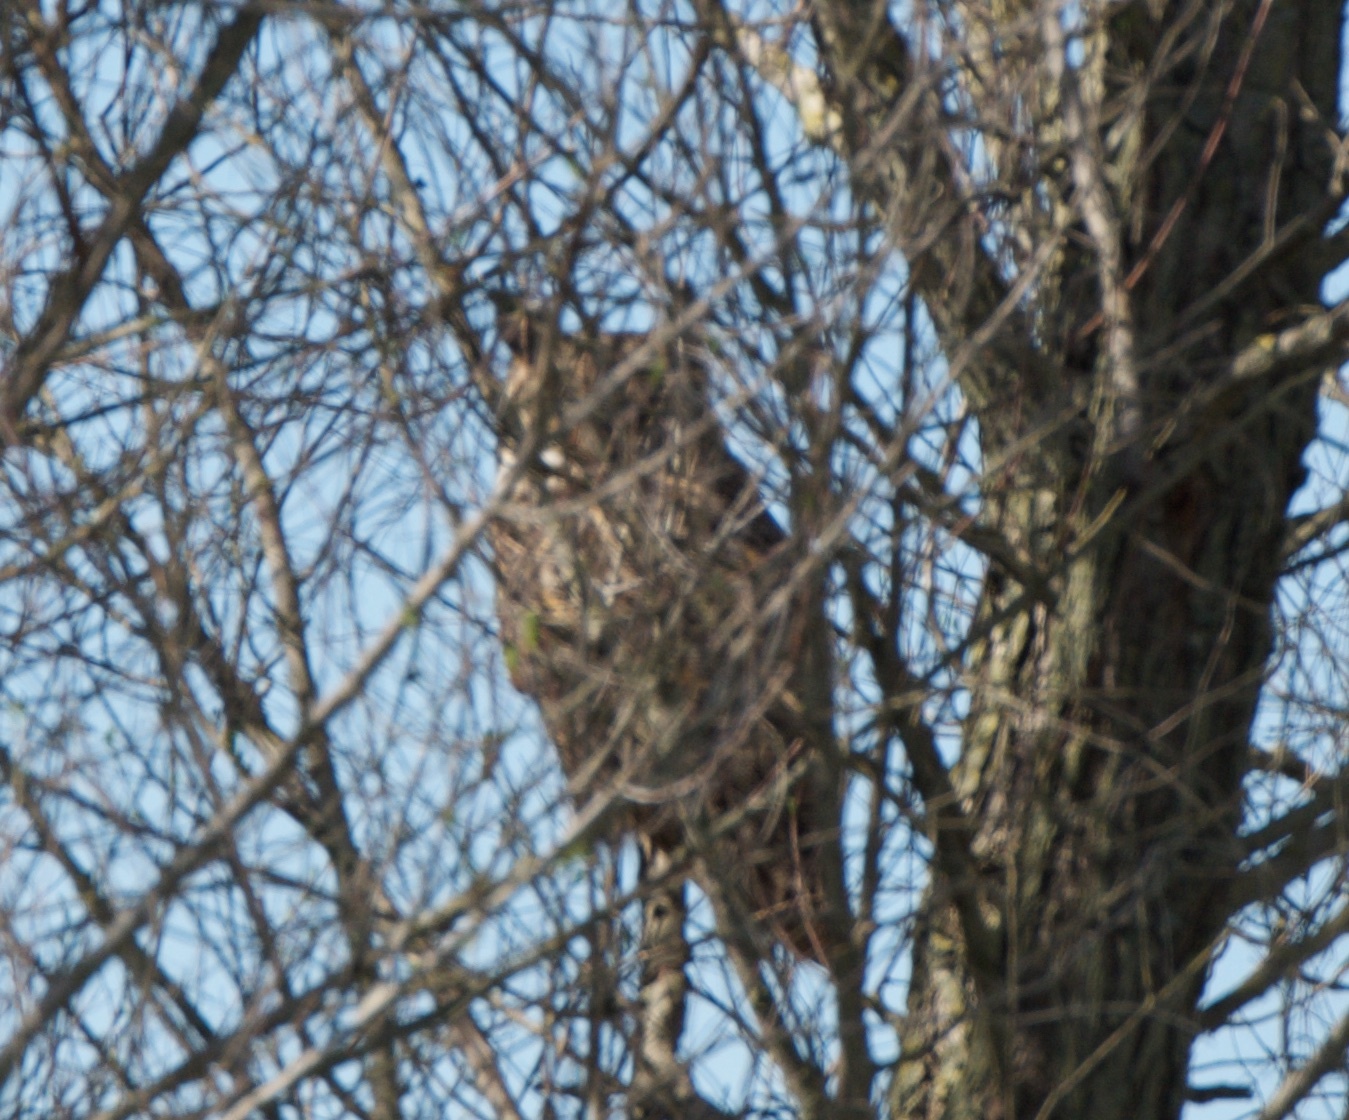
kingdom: Animalia
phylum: Chordata
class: Aves
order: Strigiformes
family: Strigidae
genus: Bubo
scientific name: Bubo virginianus
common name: Great horned owl
